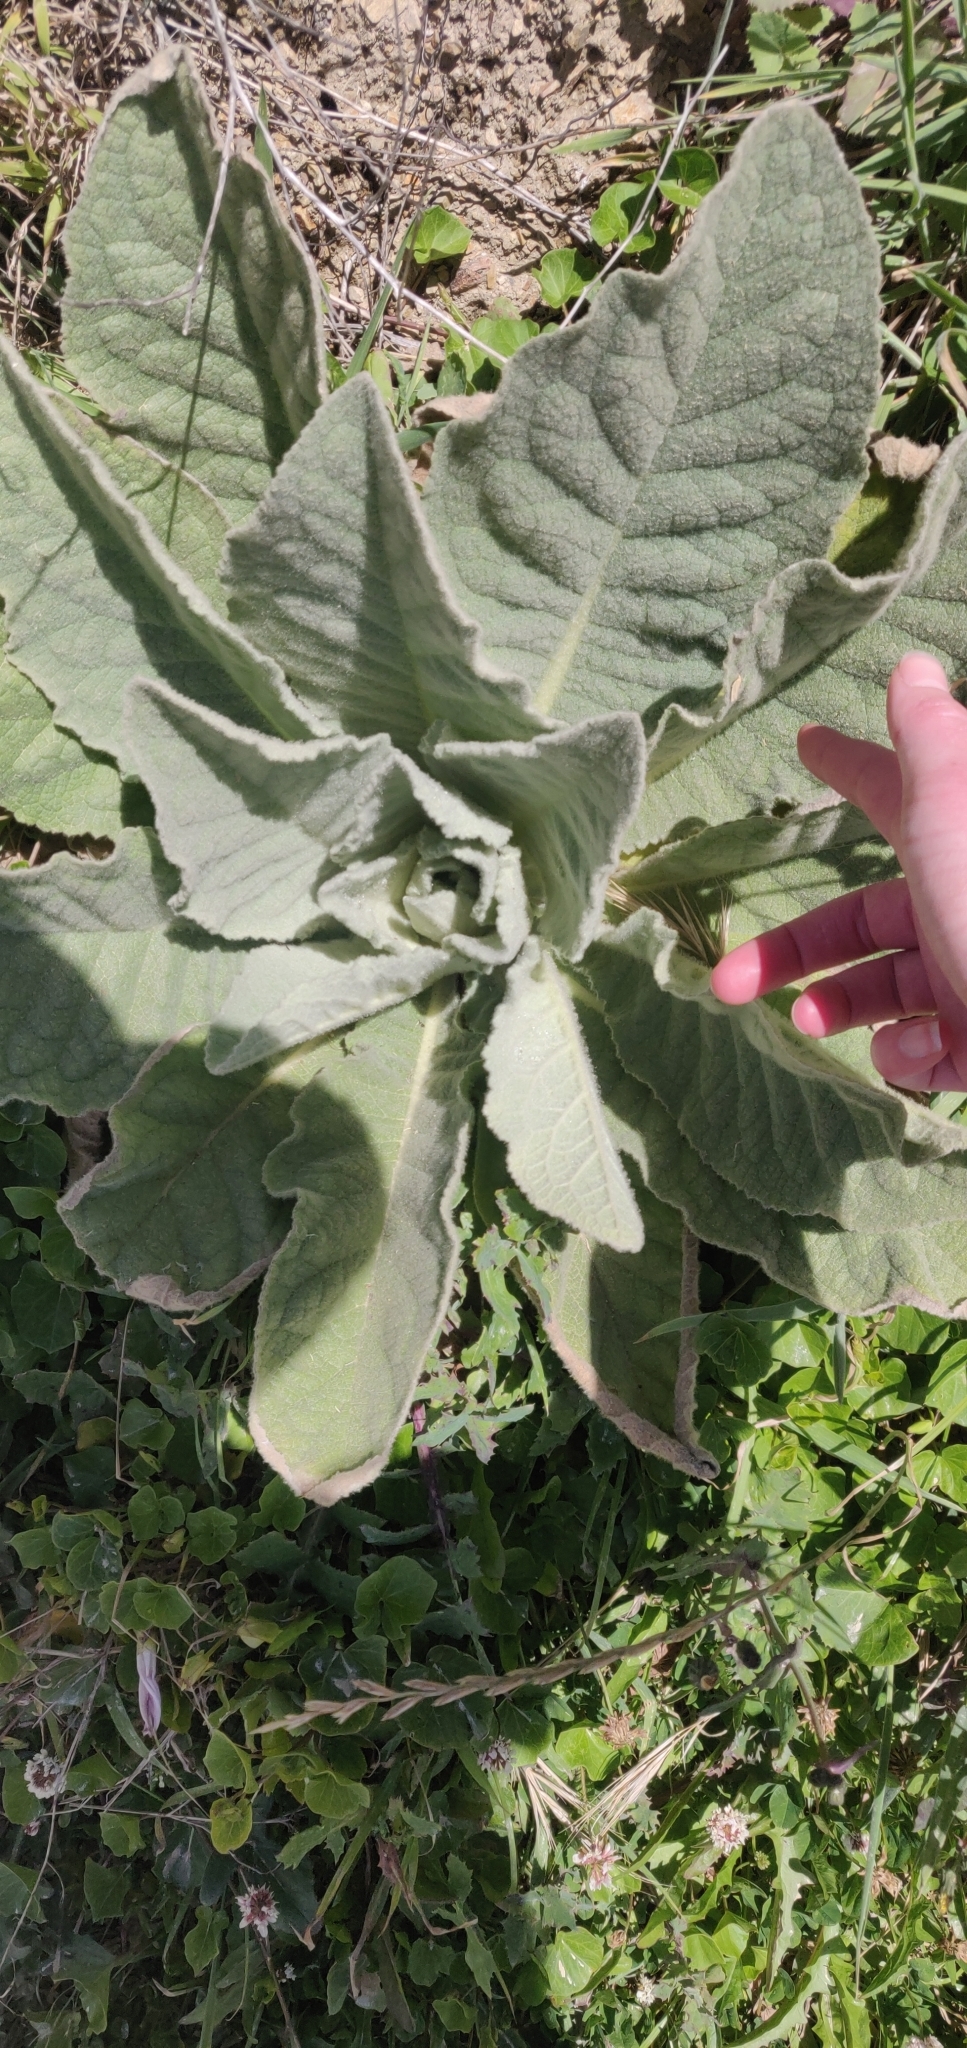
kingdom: Plantae
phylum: Tracheophyta
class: Magnoliopsida
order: Lamiales
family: Scrophulariaceae
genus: Verbascum
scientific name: Verbascum thapsus
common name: Common mullein
